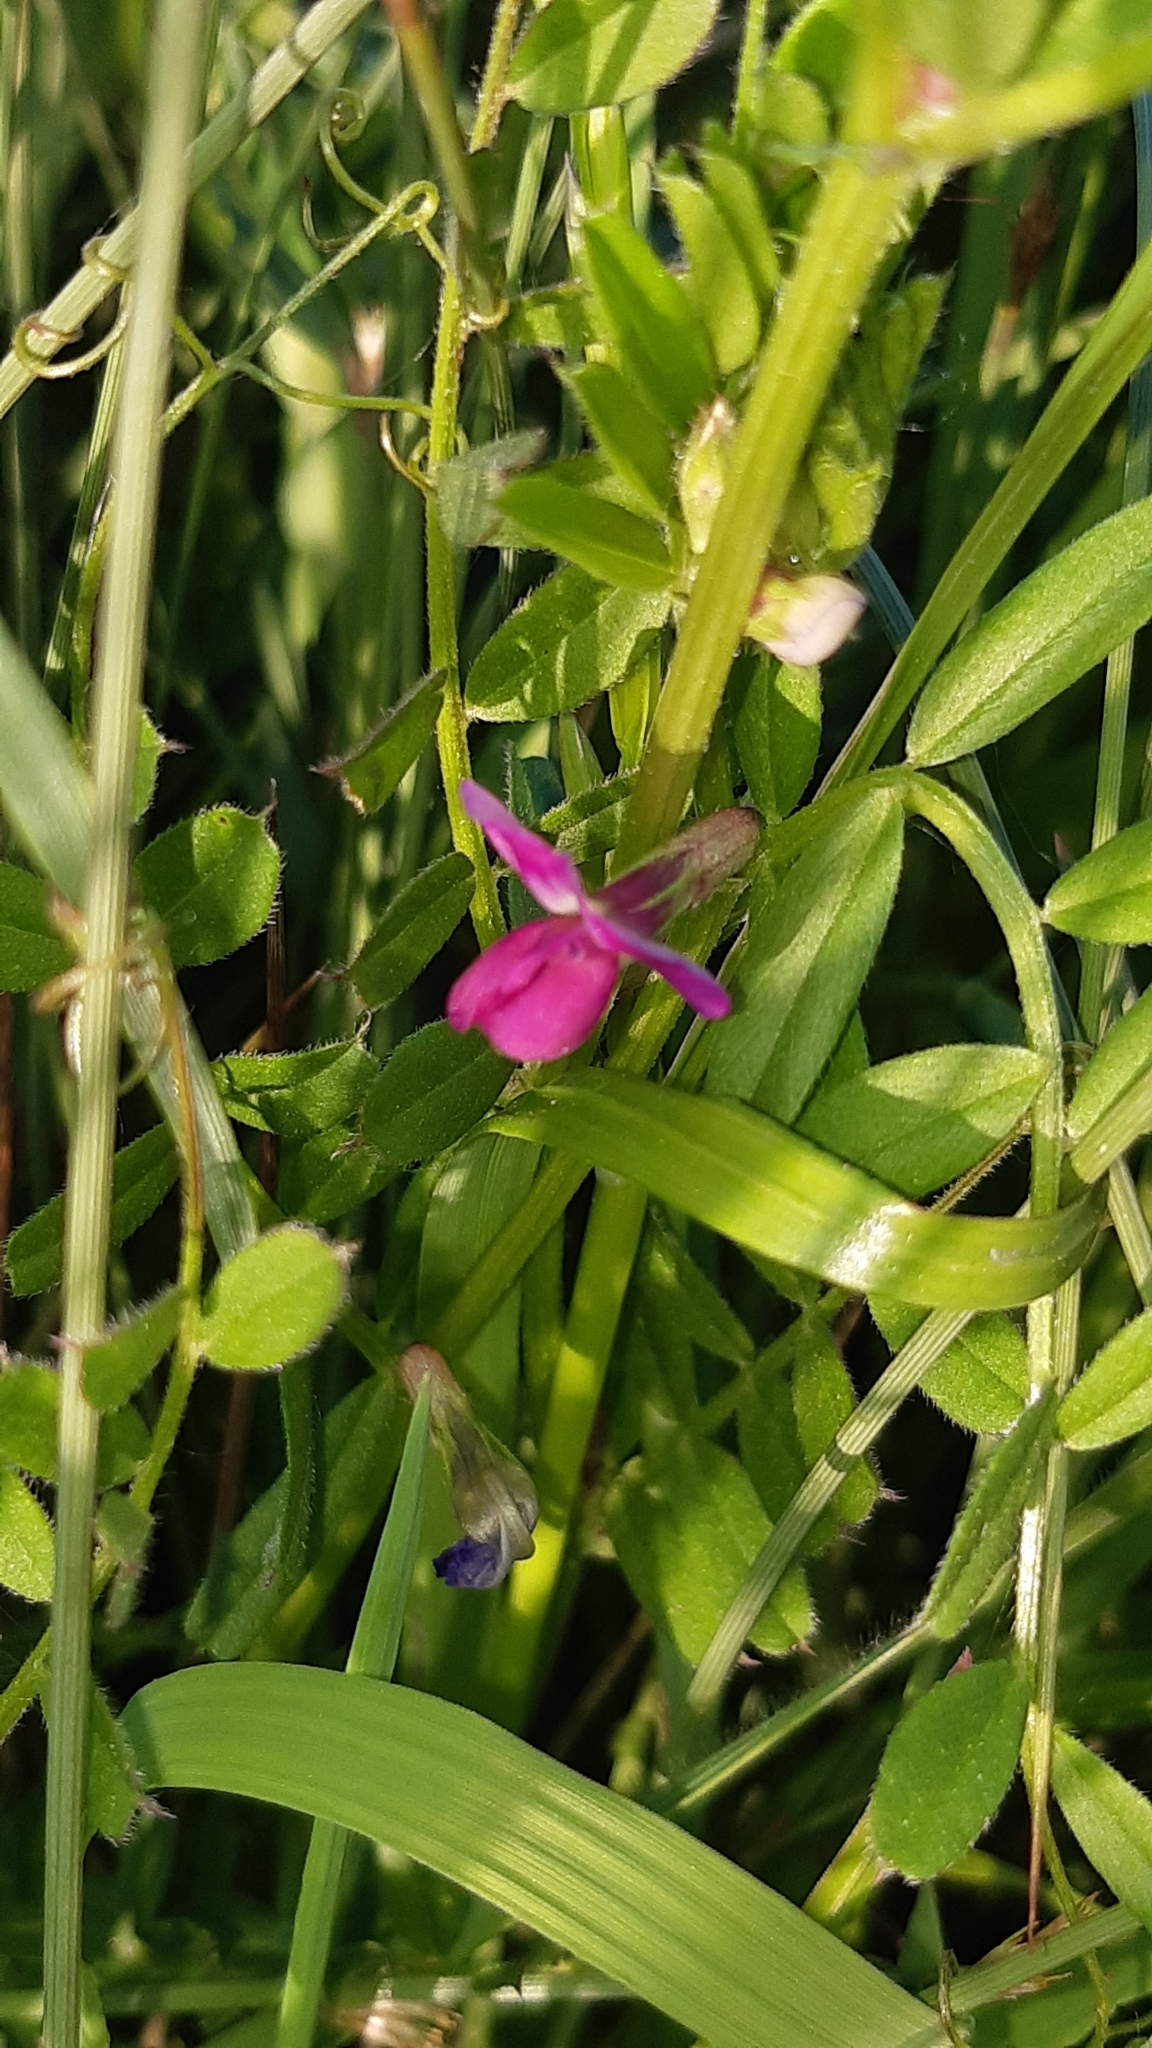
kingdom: Plantae
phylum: Tracheophyta
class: Magnoliopsida
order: Fabales
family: Fabaceae
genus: Vicia
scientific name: Vicia sativa
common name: Garden vetch
